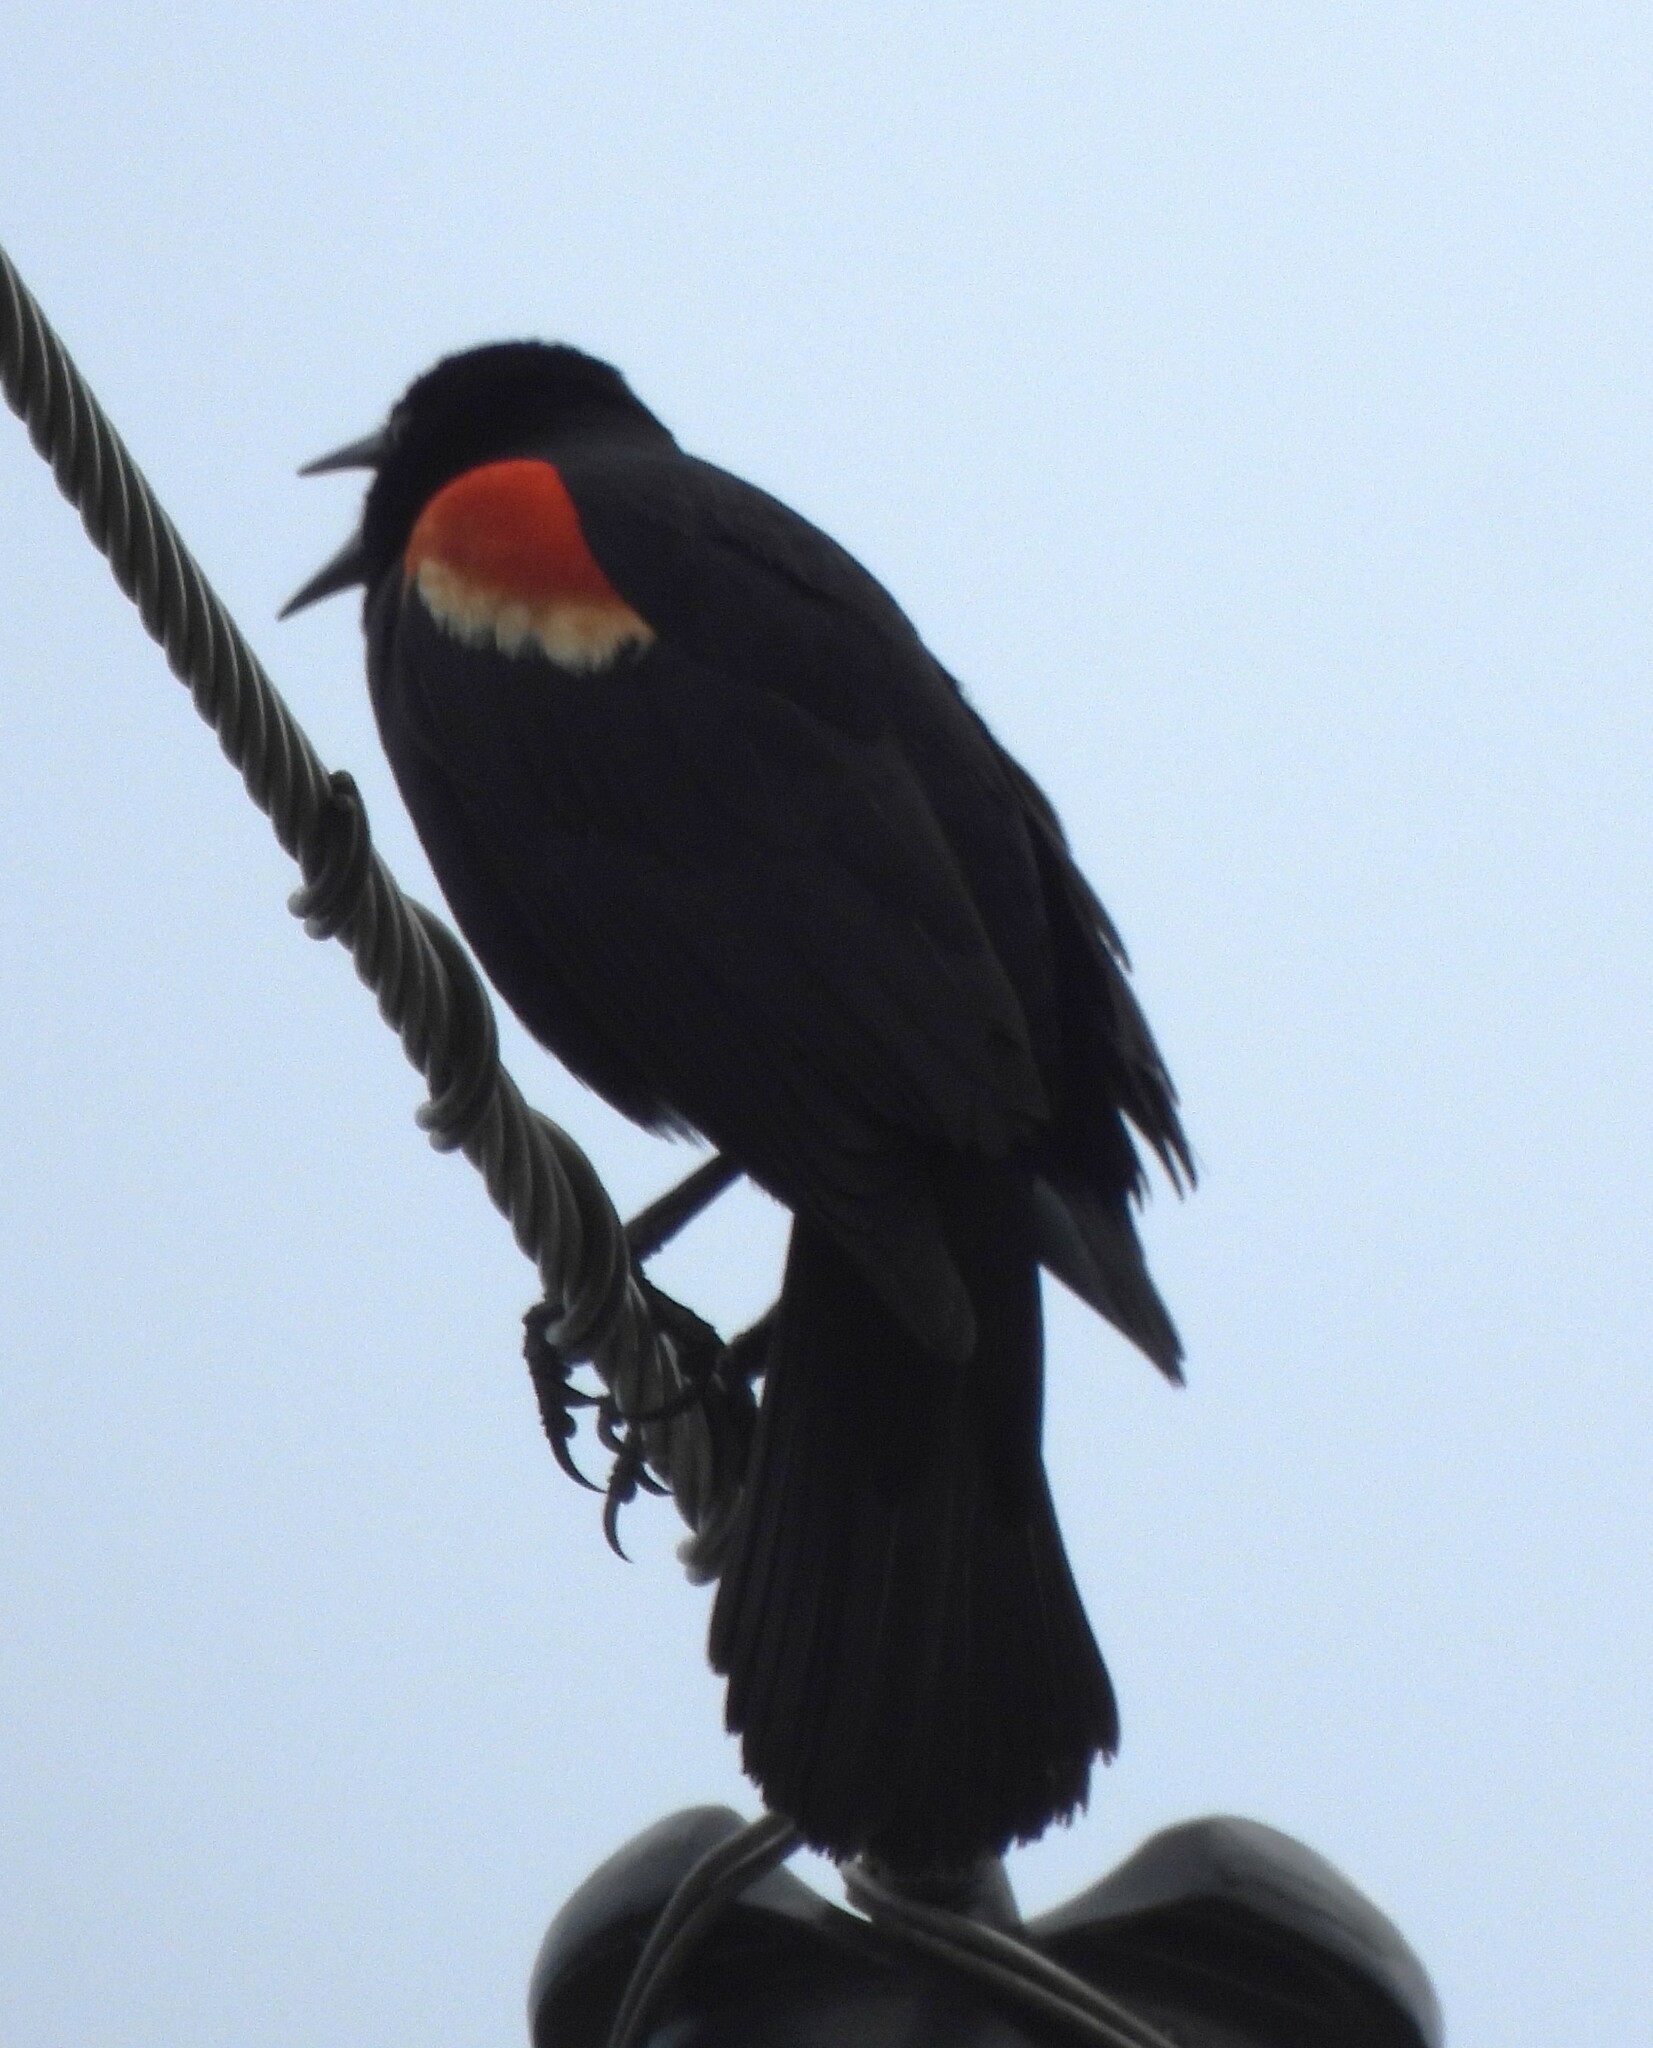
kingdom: Animalia
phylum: Chordata
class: Aves
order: Passeriformes
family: Icteridae
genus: Agelaius
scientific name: Agelaius phoeniceus
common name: Red-winged blackbird
